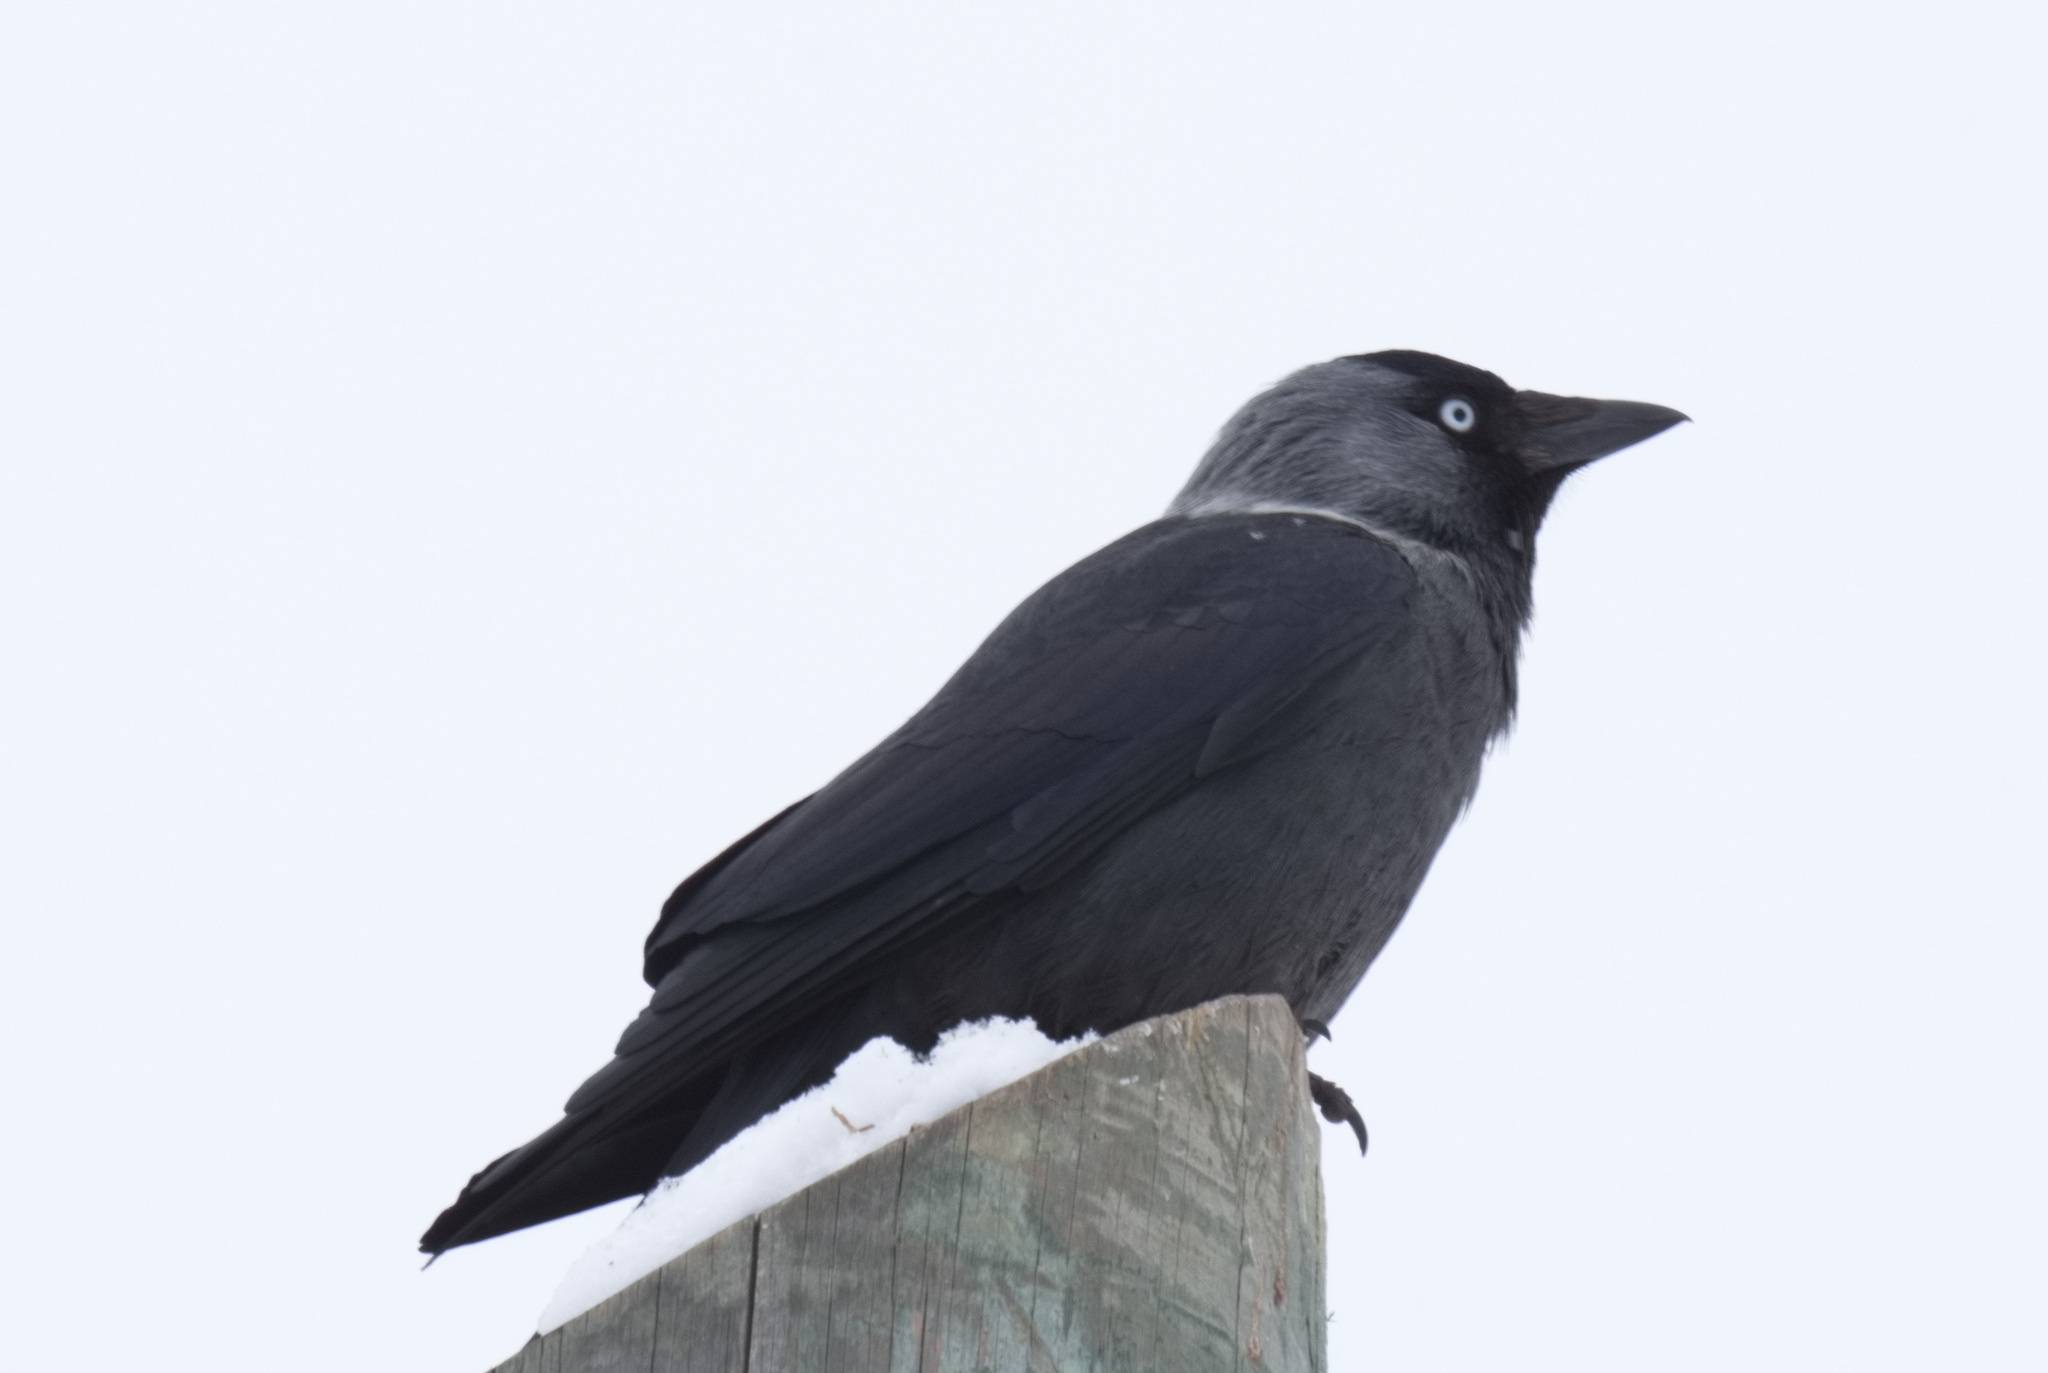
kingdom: Animalia
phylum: Chordata
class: Aves
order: Passeriformes
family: Corvidae
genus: Coloeus
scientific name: Coloeus monedula
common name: Western jackdaw
